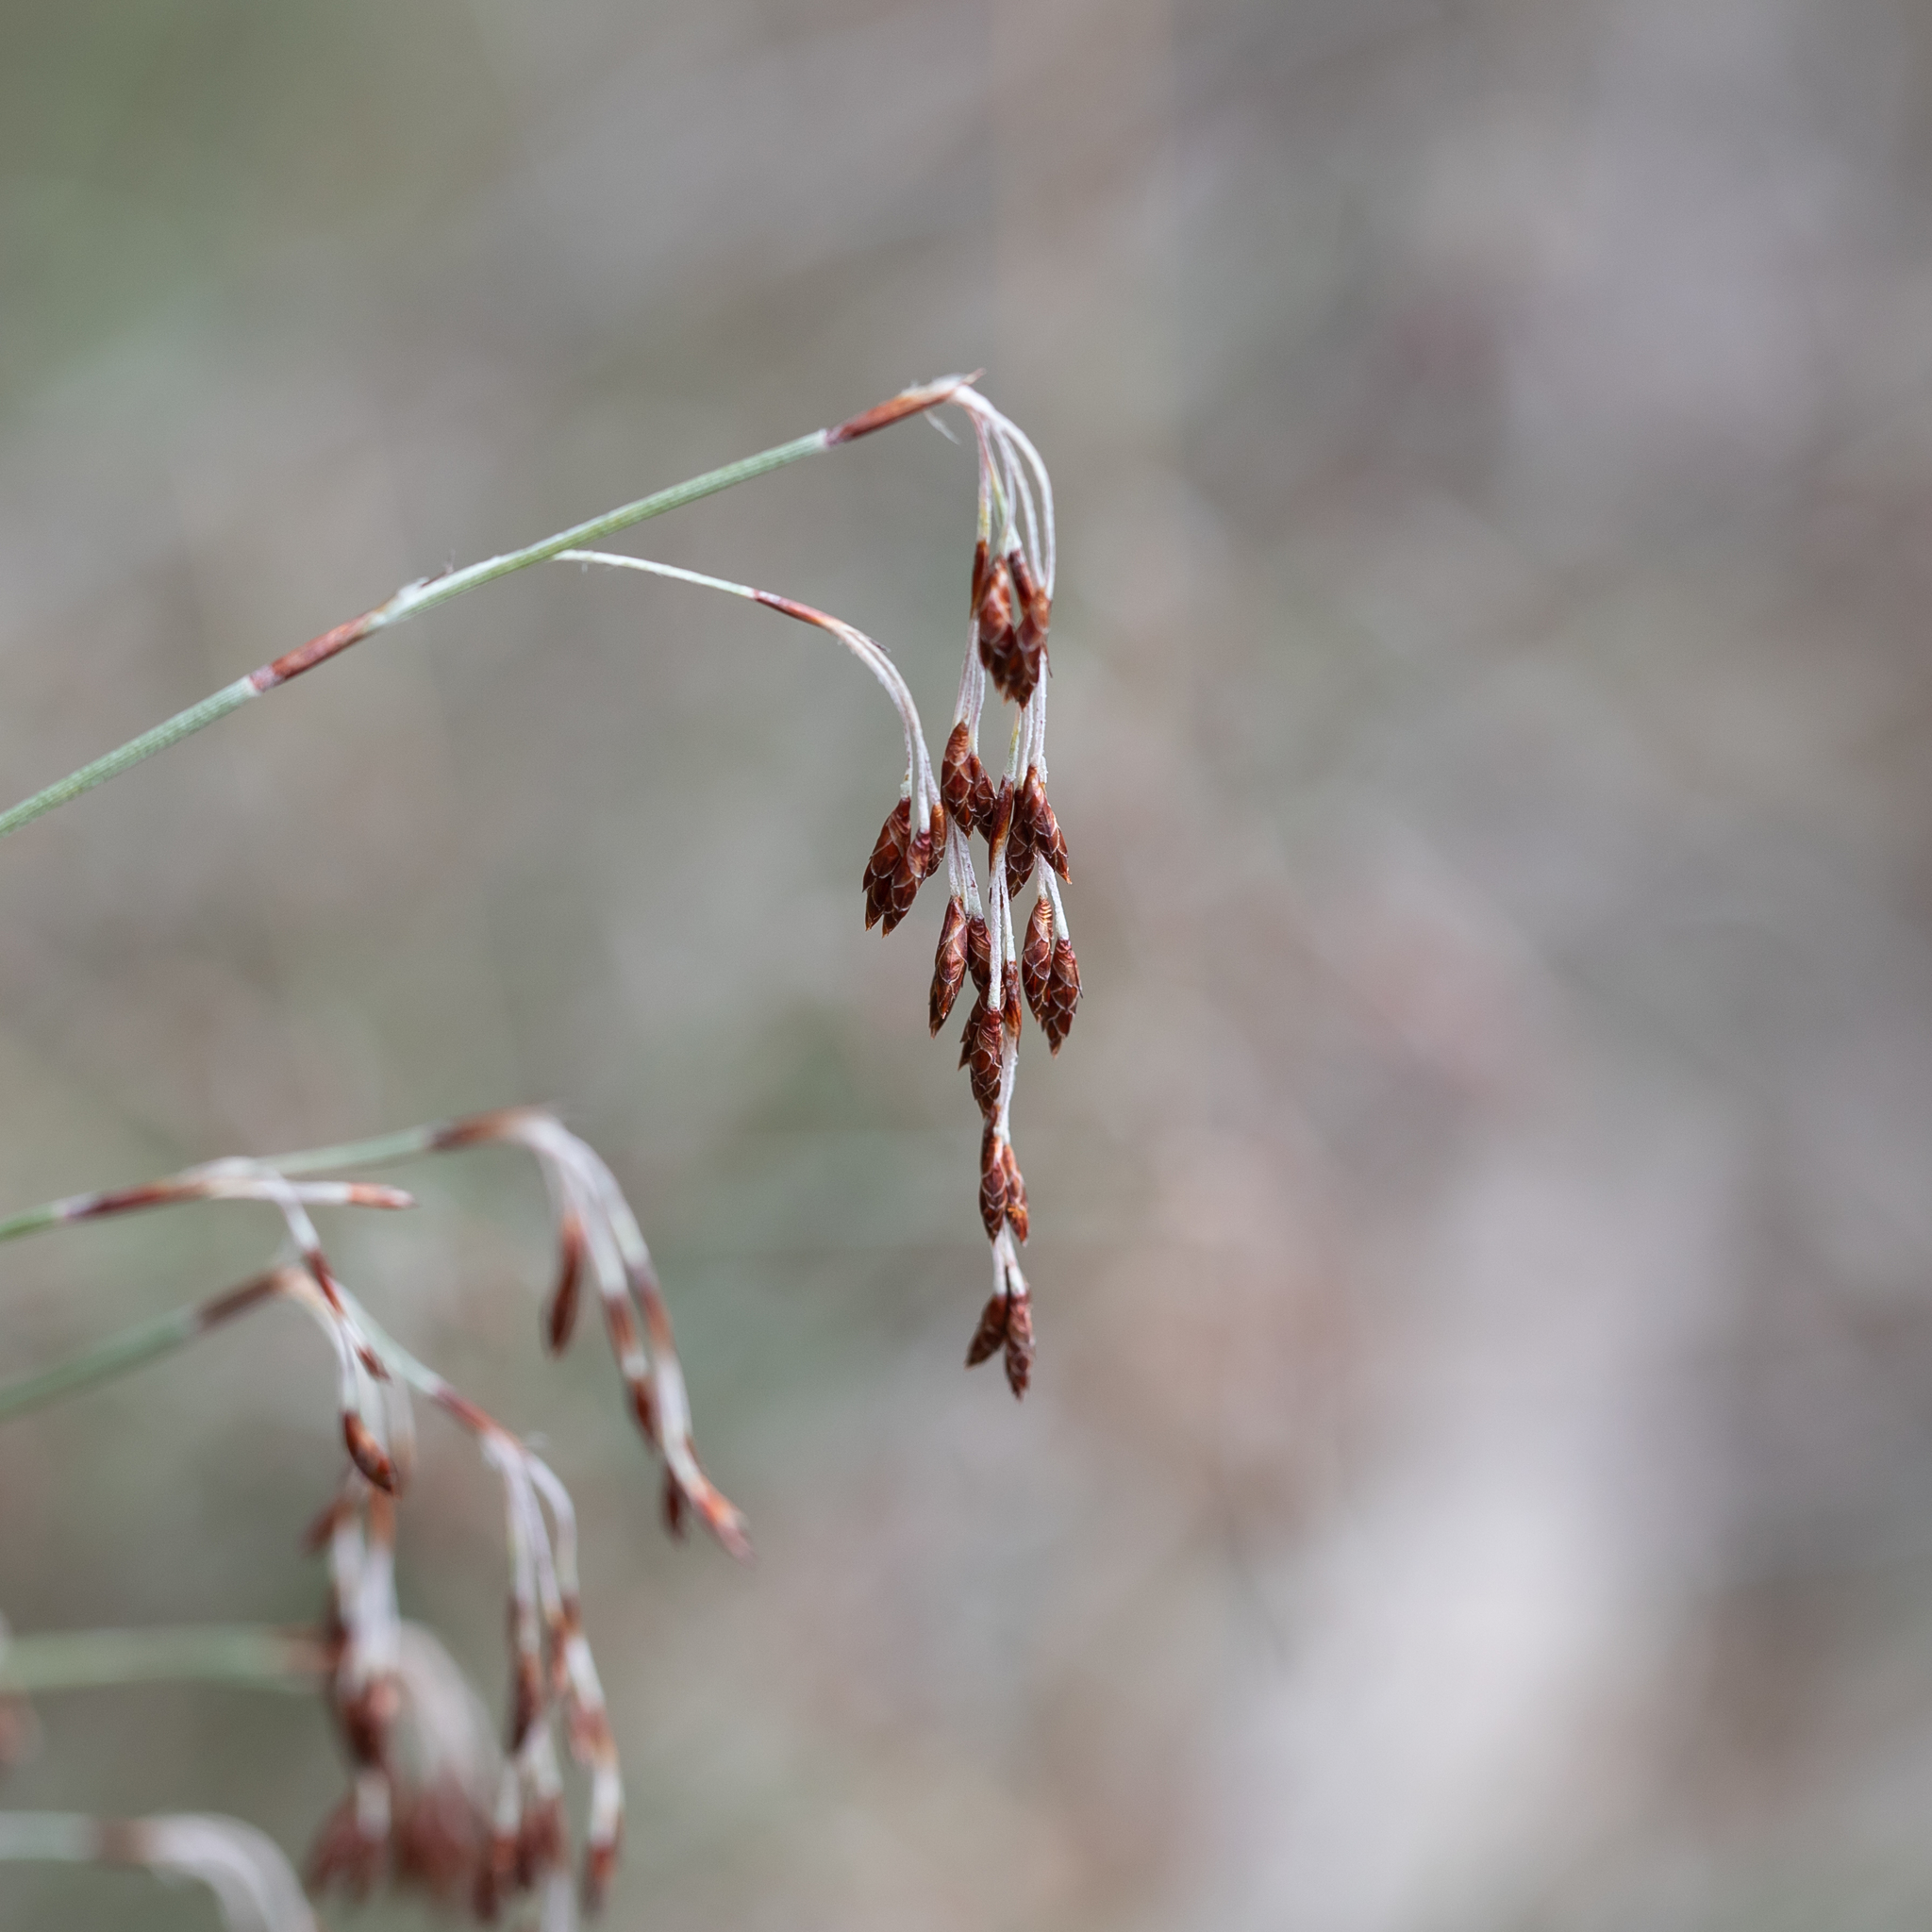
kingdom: Plantae
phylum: Tracheophyta
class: Liliopsida
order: Poales
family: Restionaceae
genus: Hypolaena
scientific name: Hypolaena fastigiata
